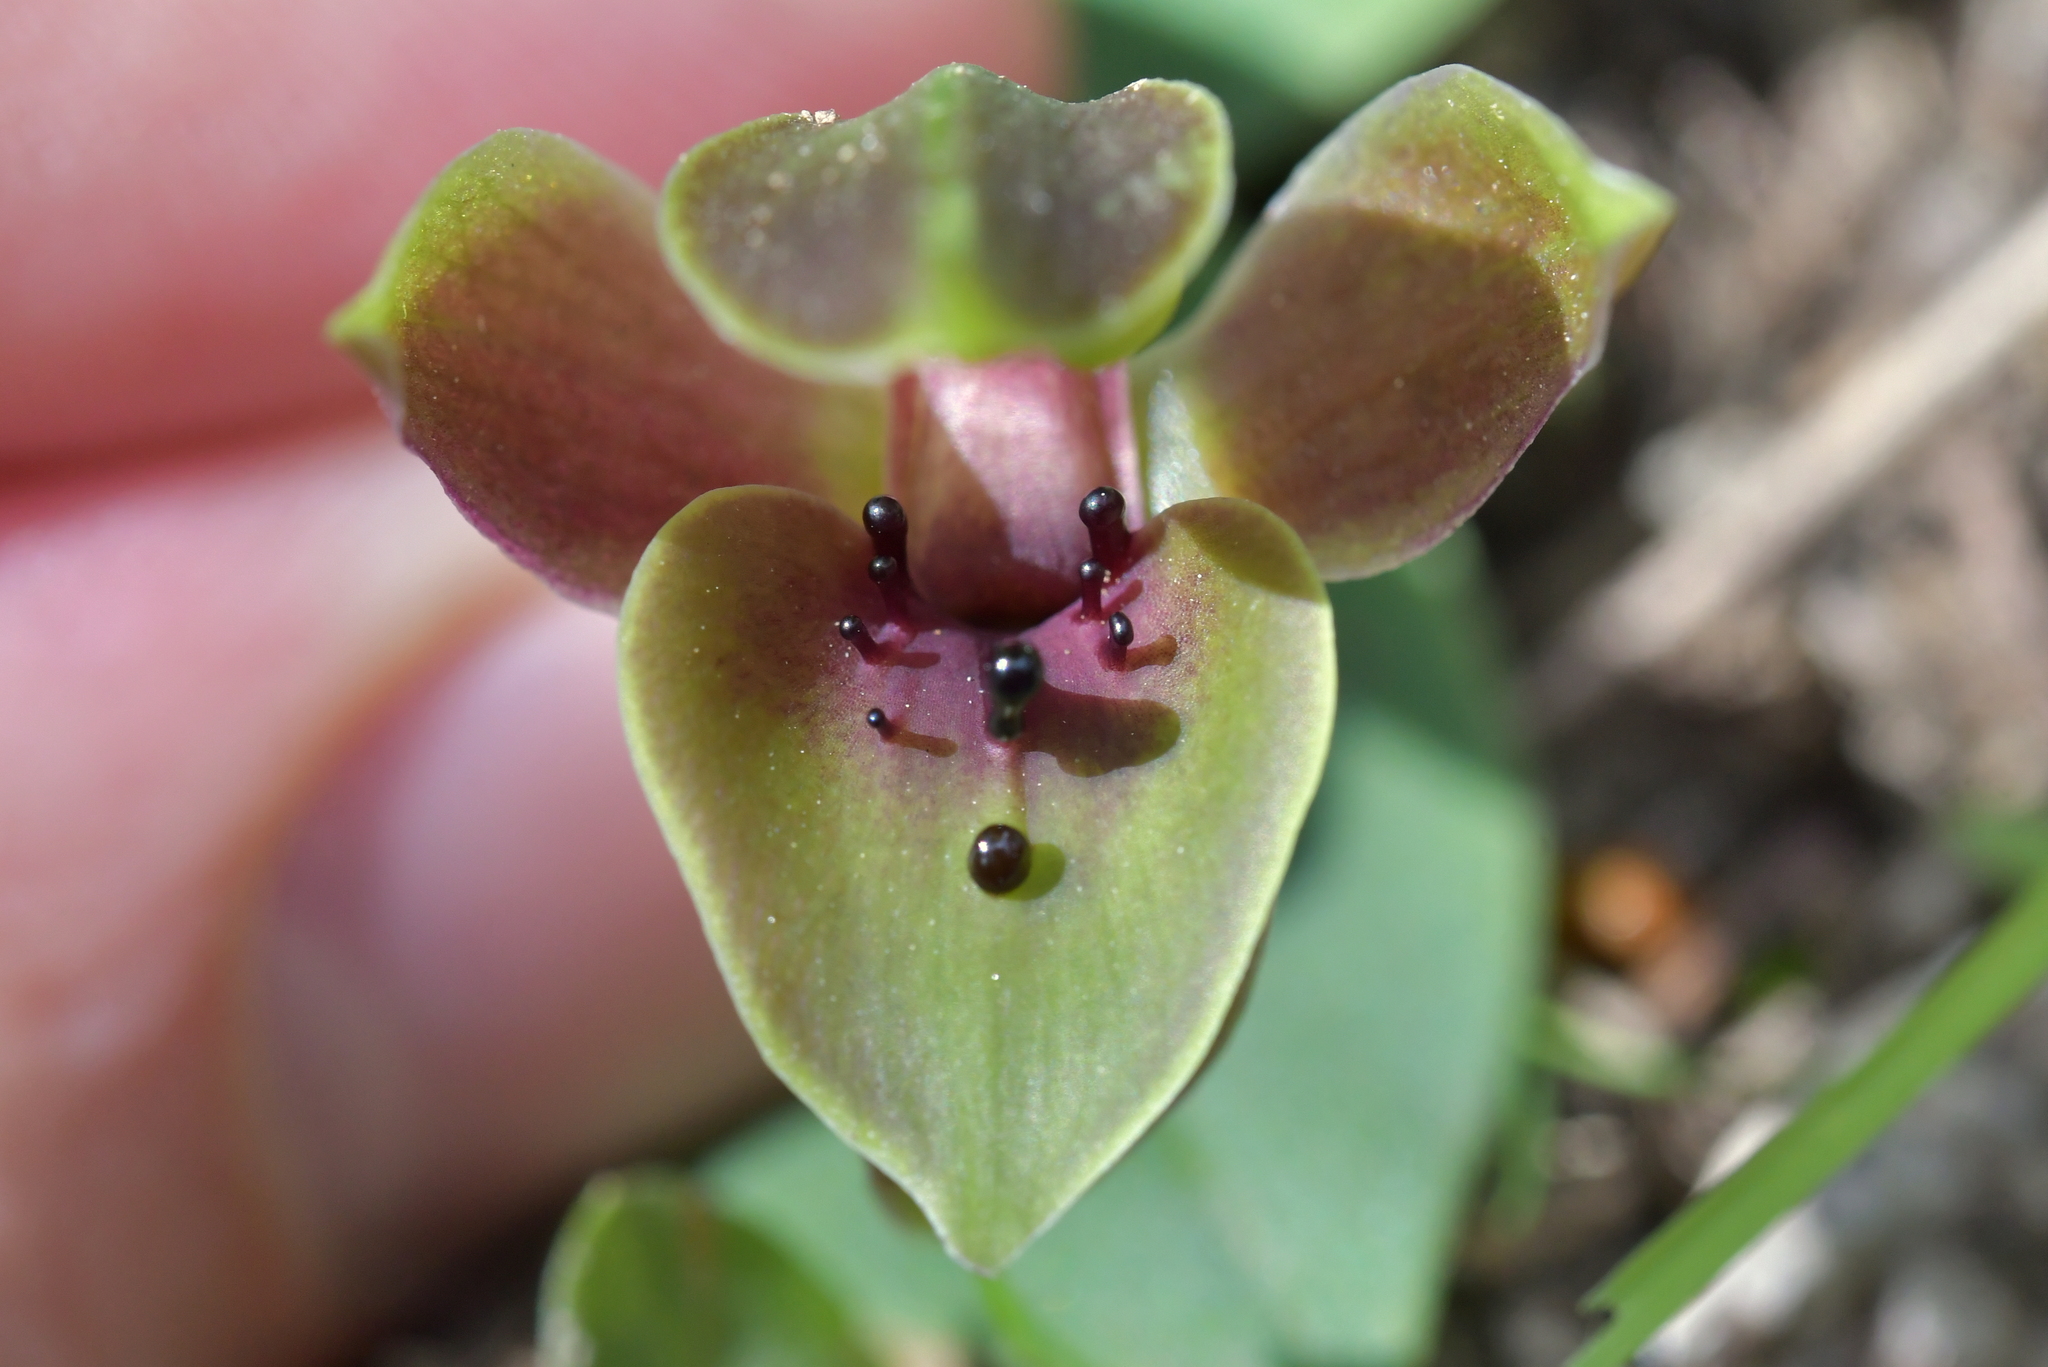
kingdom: Plantae
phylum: Tracheophyta
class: Liliopsida
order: Asparagales
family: Orchidaceae
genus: Chiloglottis
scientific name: Chiloglottis valida
